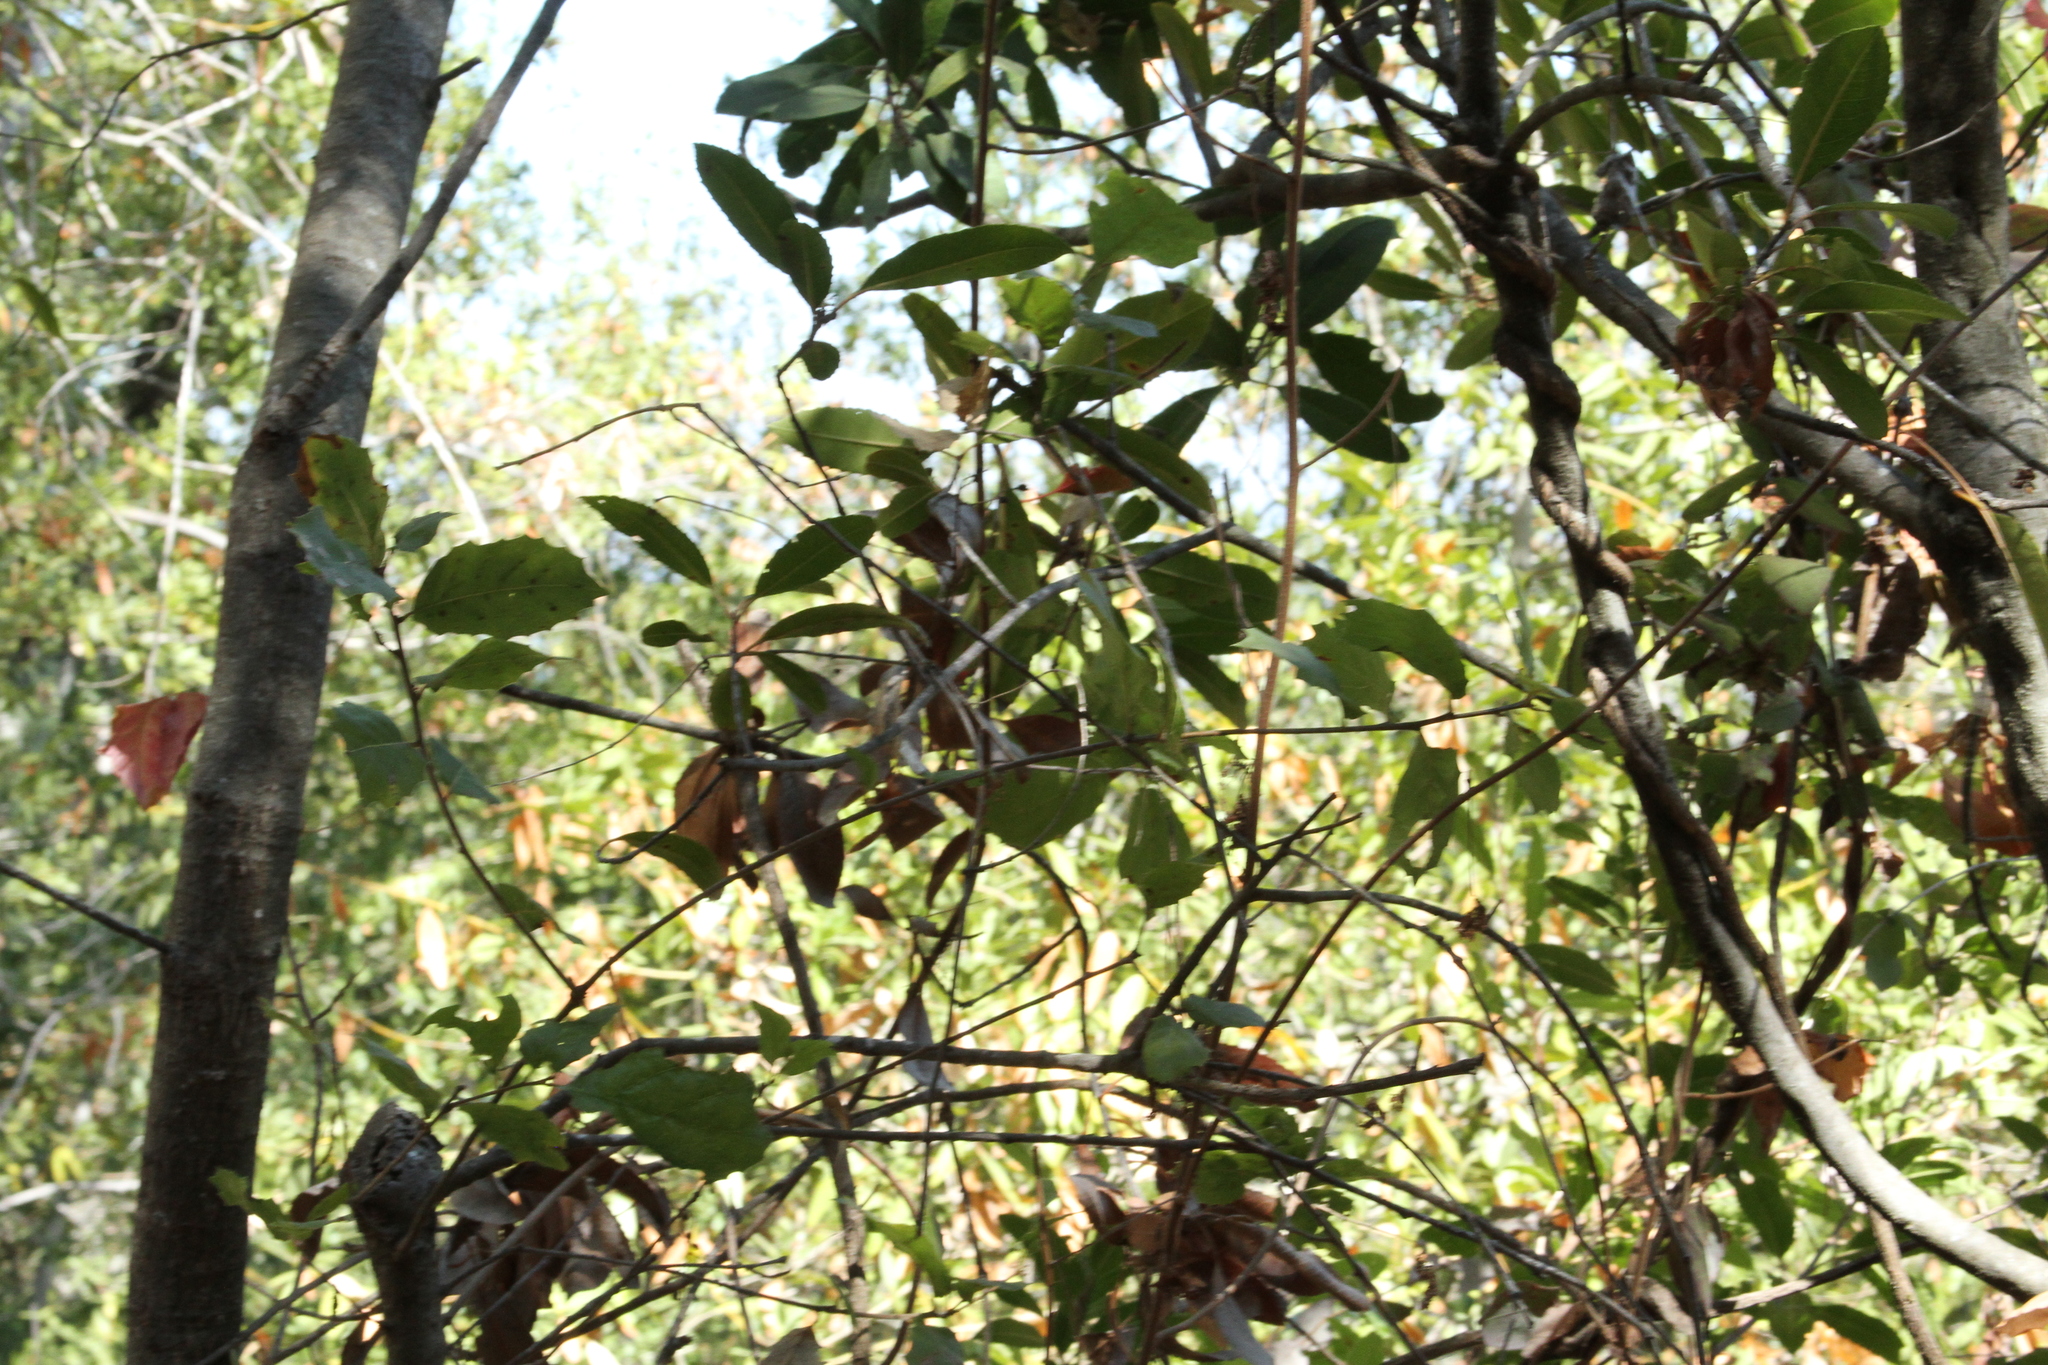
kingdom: Plantae
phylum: Tracheophyta
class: Magnoliopsida
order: Rosales
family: Rosaceae
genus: Heteromeles
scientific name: Heteromeles arbutifolia
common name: California-holly
